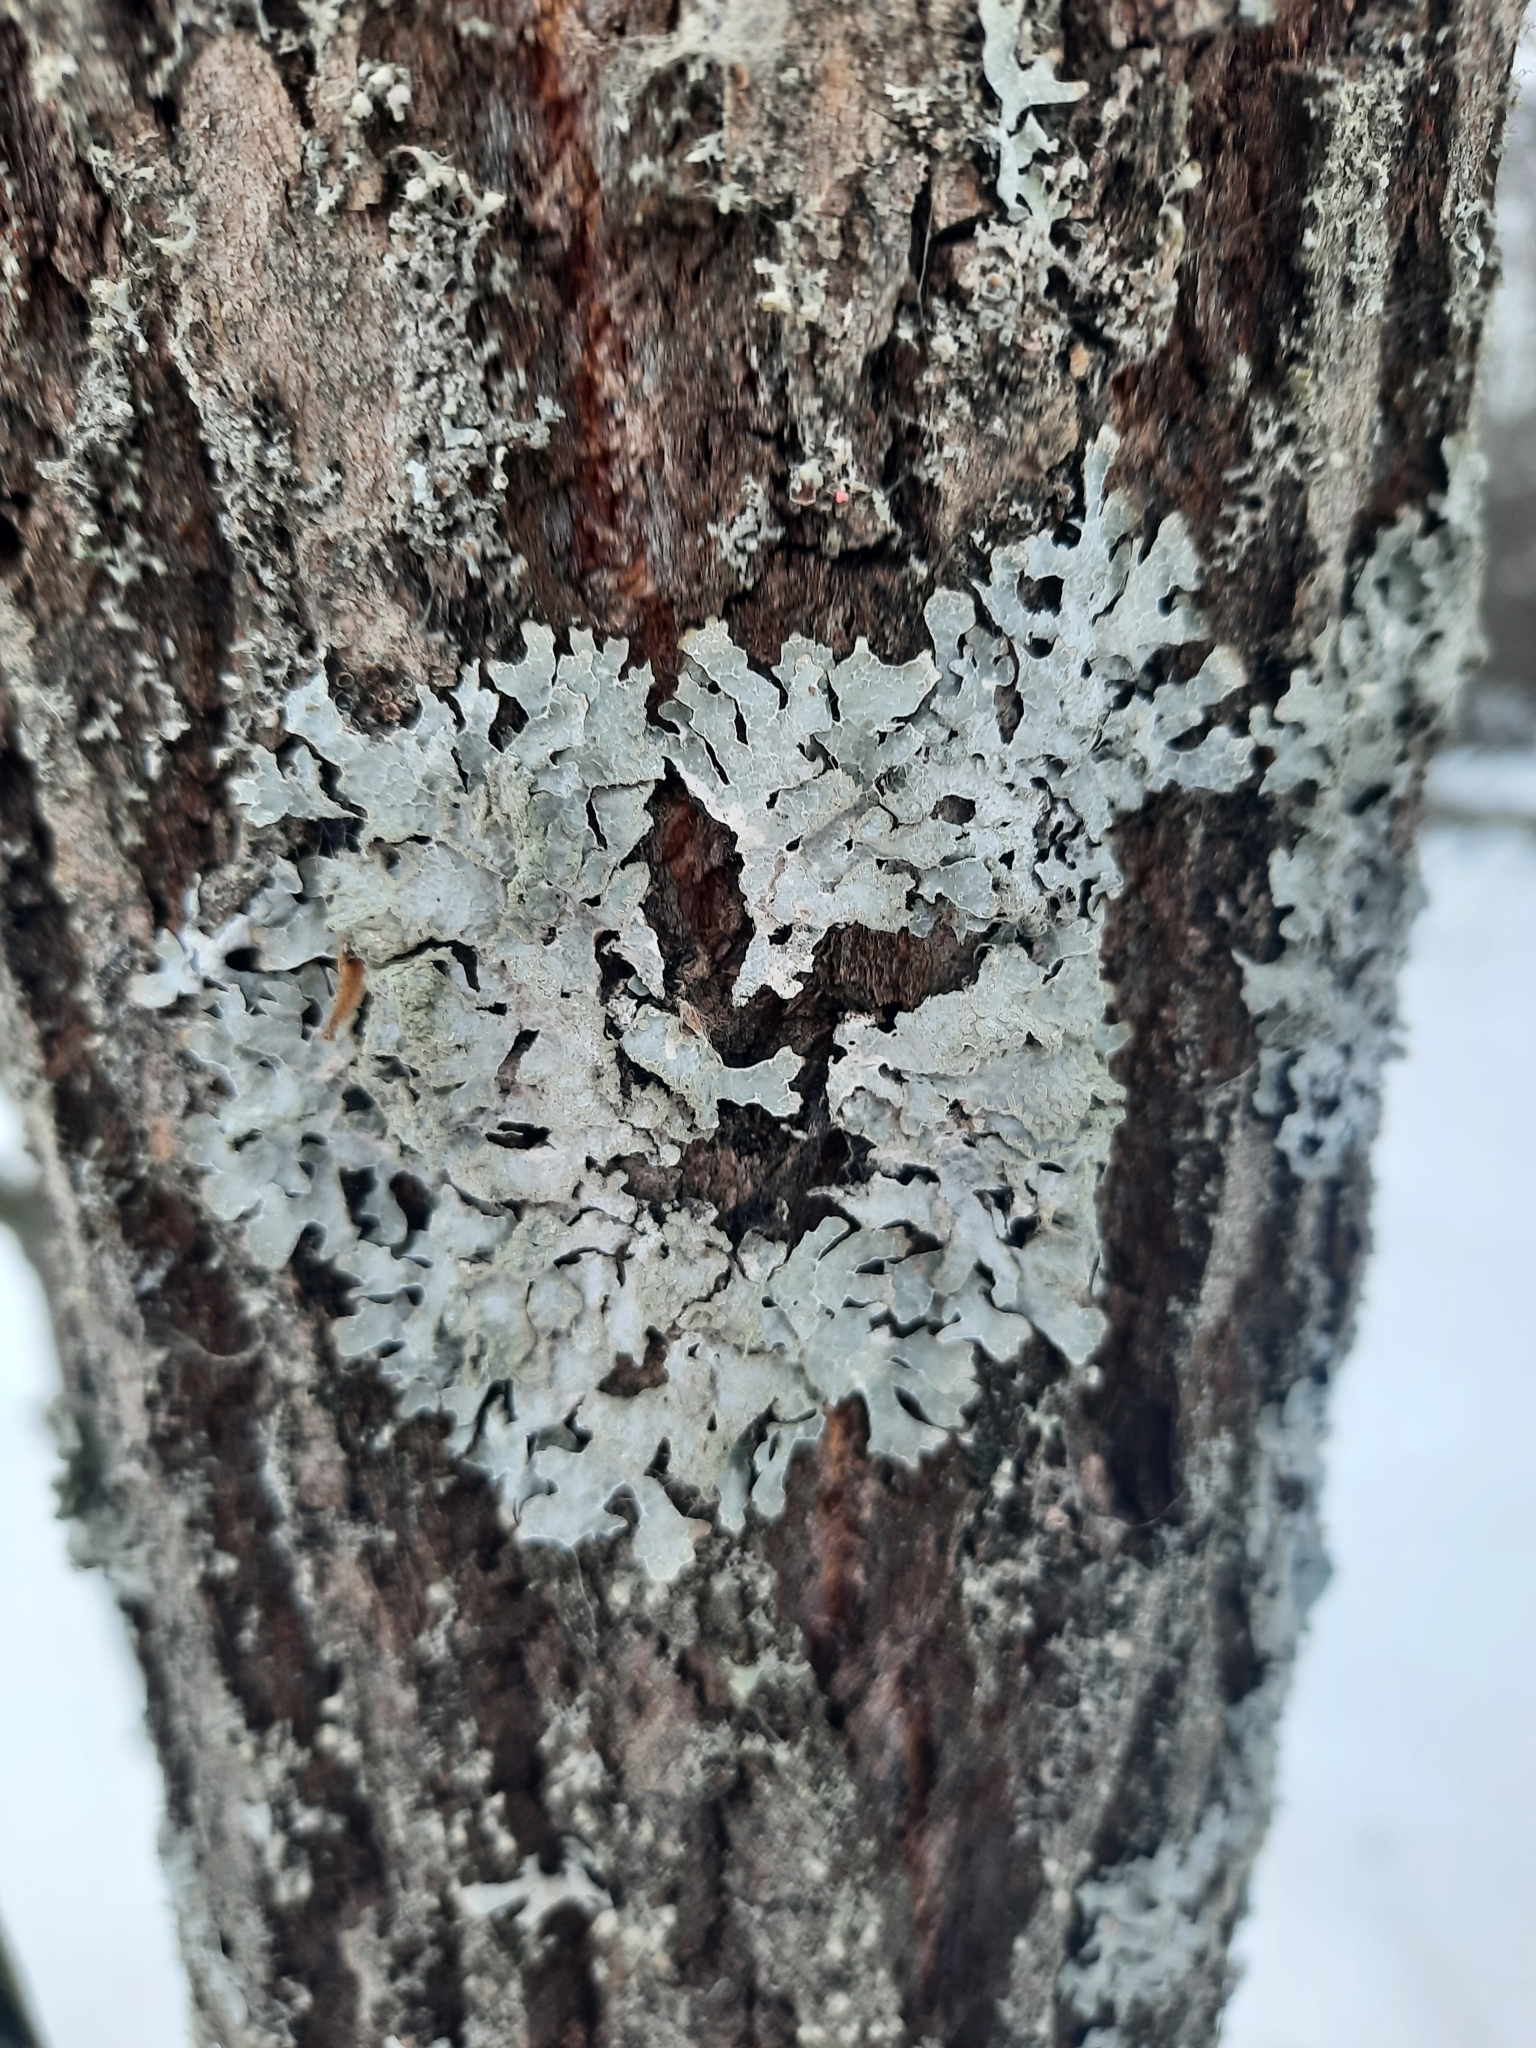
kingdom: Fungi
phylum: Ascomycota
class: Lecanoromycetes
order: Lecanorales
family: Parmeliaceae
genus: Parmelia
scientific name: Parmelia sulcata
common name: Netted shield lichen
